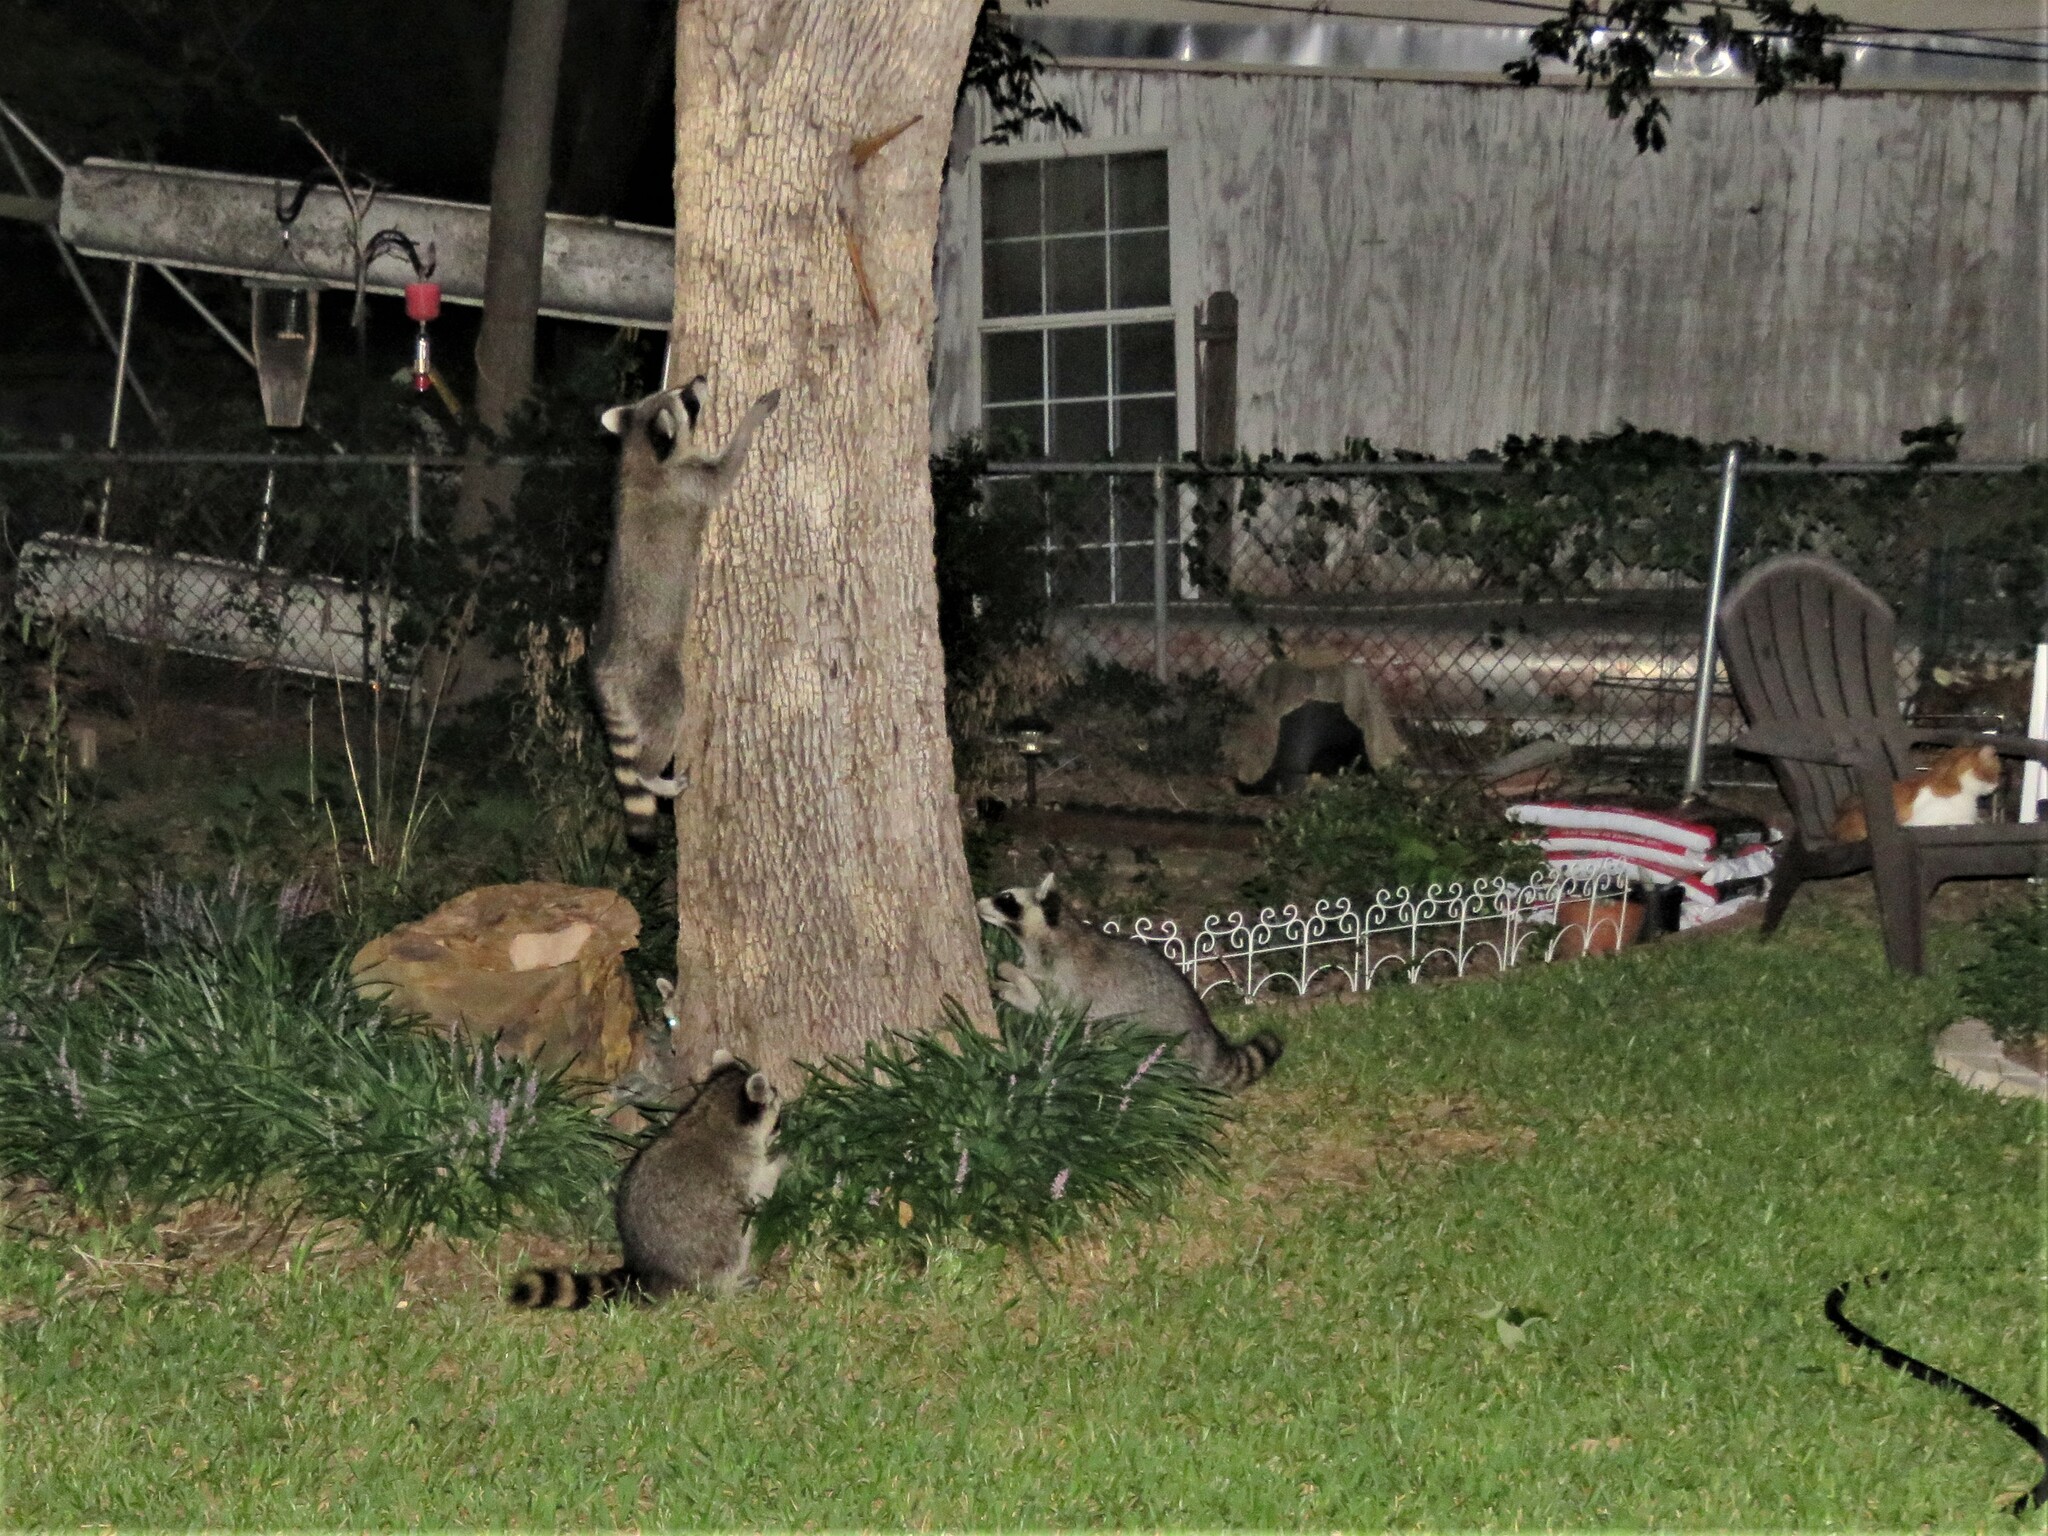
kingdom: Animalia
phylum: Chordata
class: Mammalia
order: Carnivora
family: Procyonidae
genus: Procyon
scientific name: Procyon lotor
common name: Raccoon
